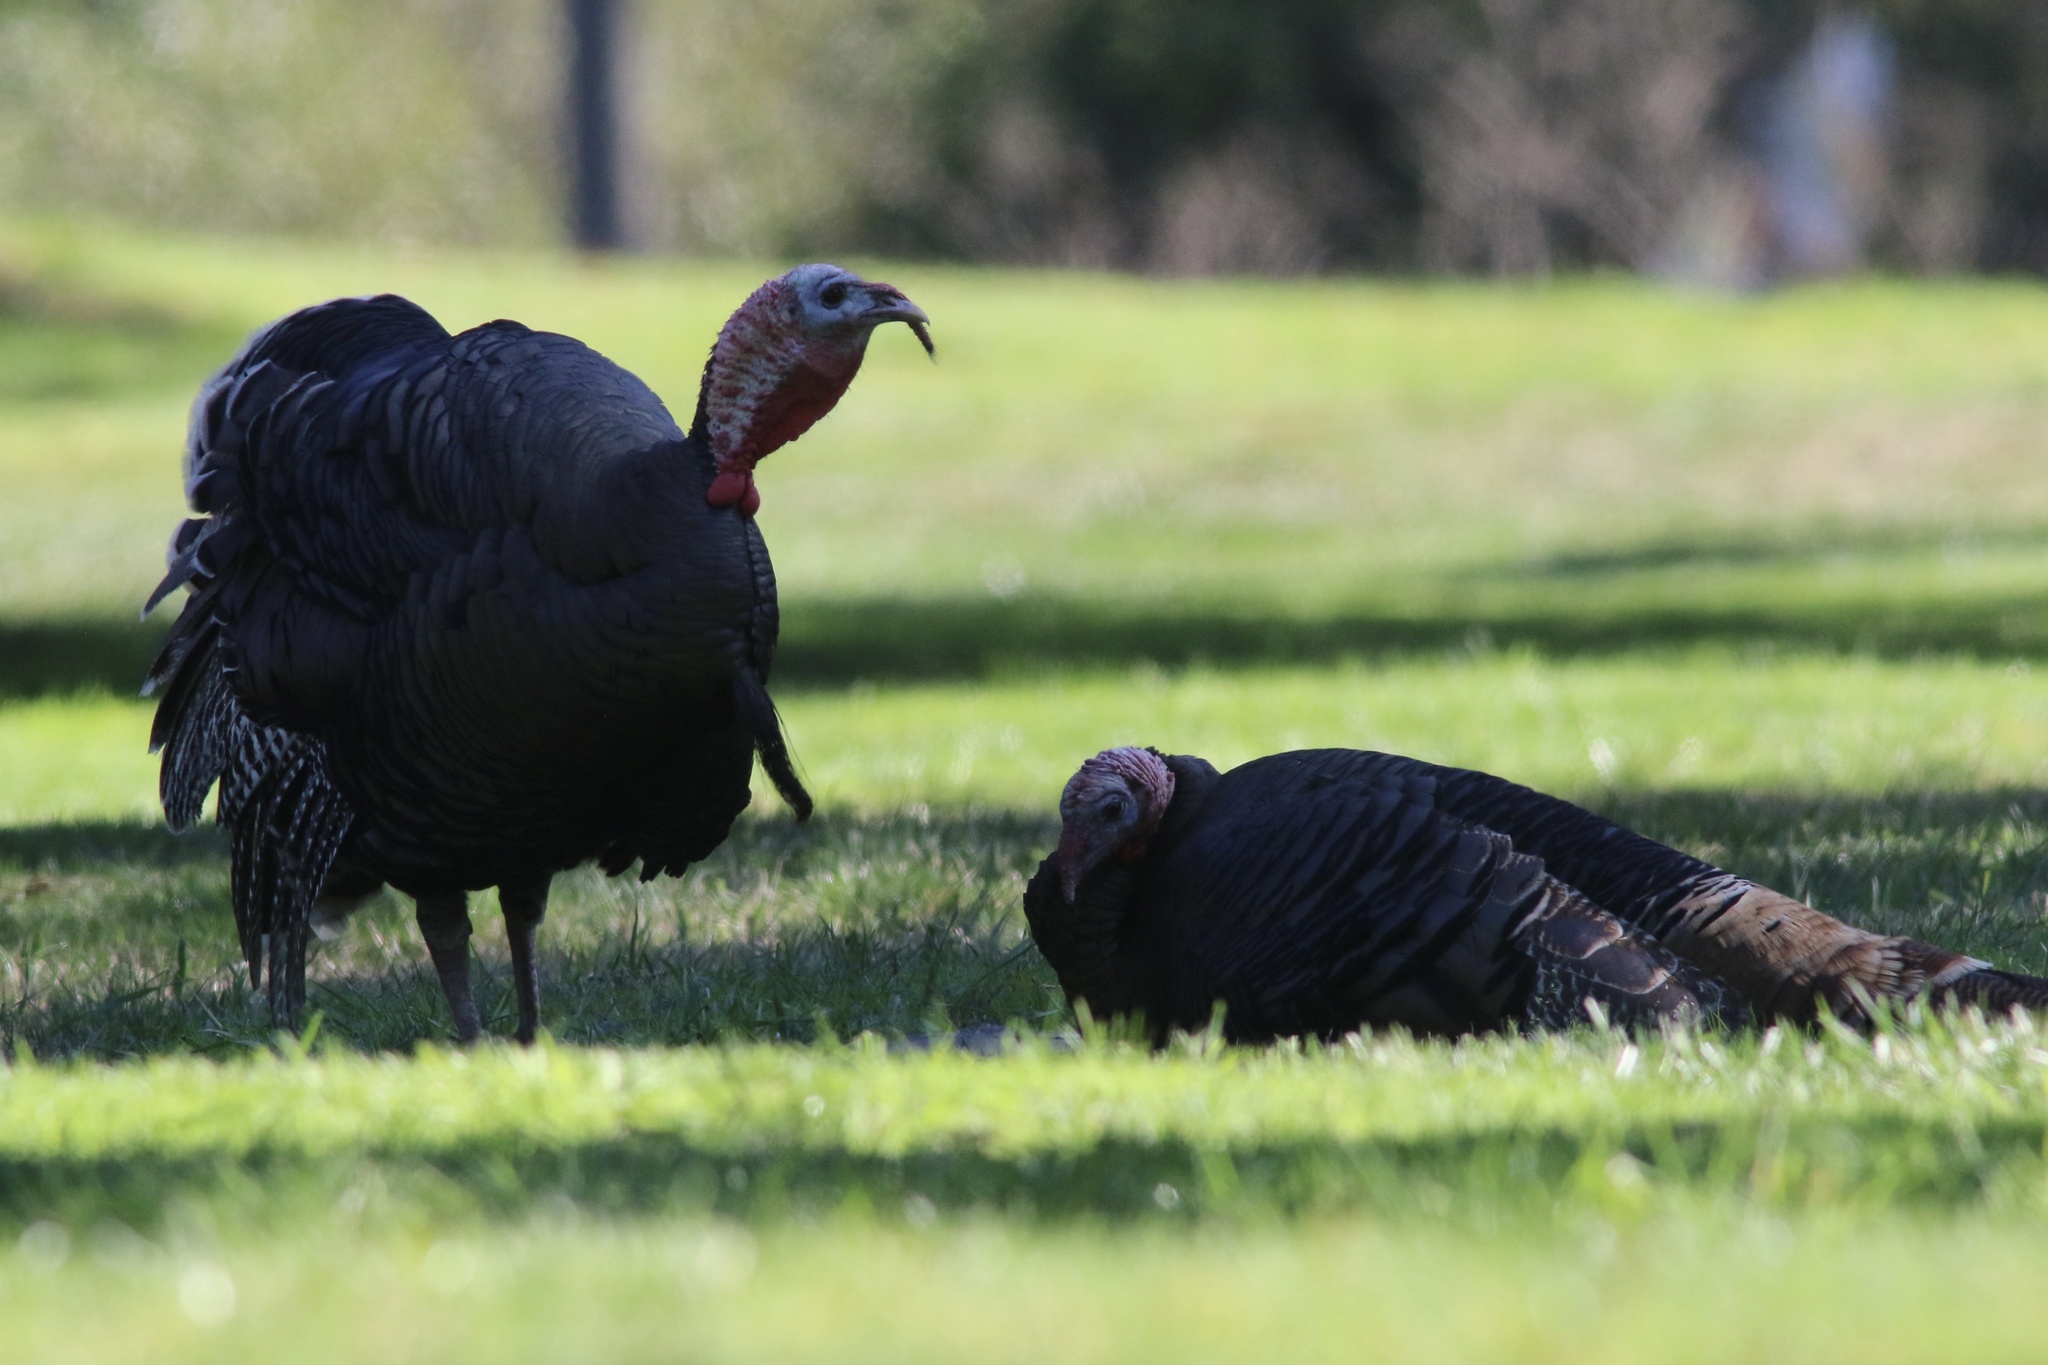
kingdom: Animalia
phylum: Chordata
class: Aves
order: Galliformes
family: Phasianidae
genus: Meleagris
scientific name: Meleagris gallopavo
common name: Wild turkey
